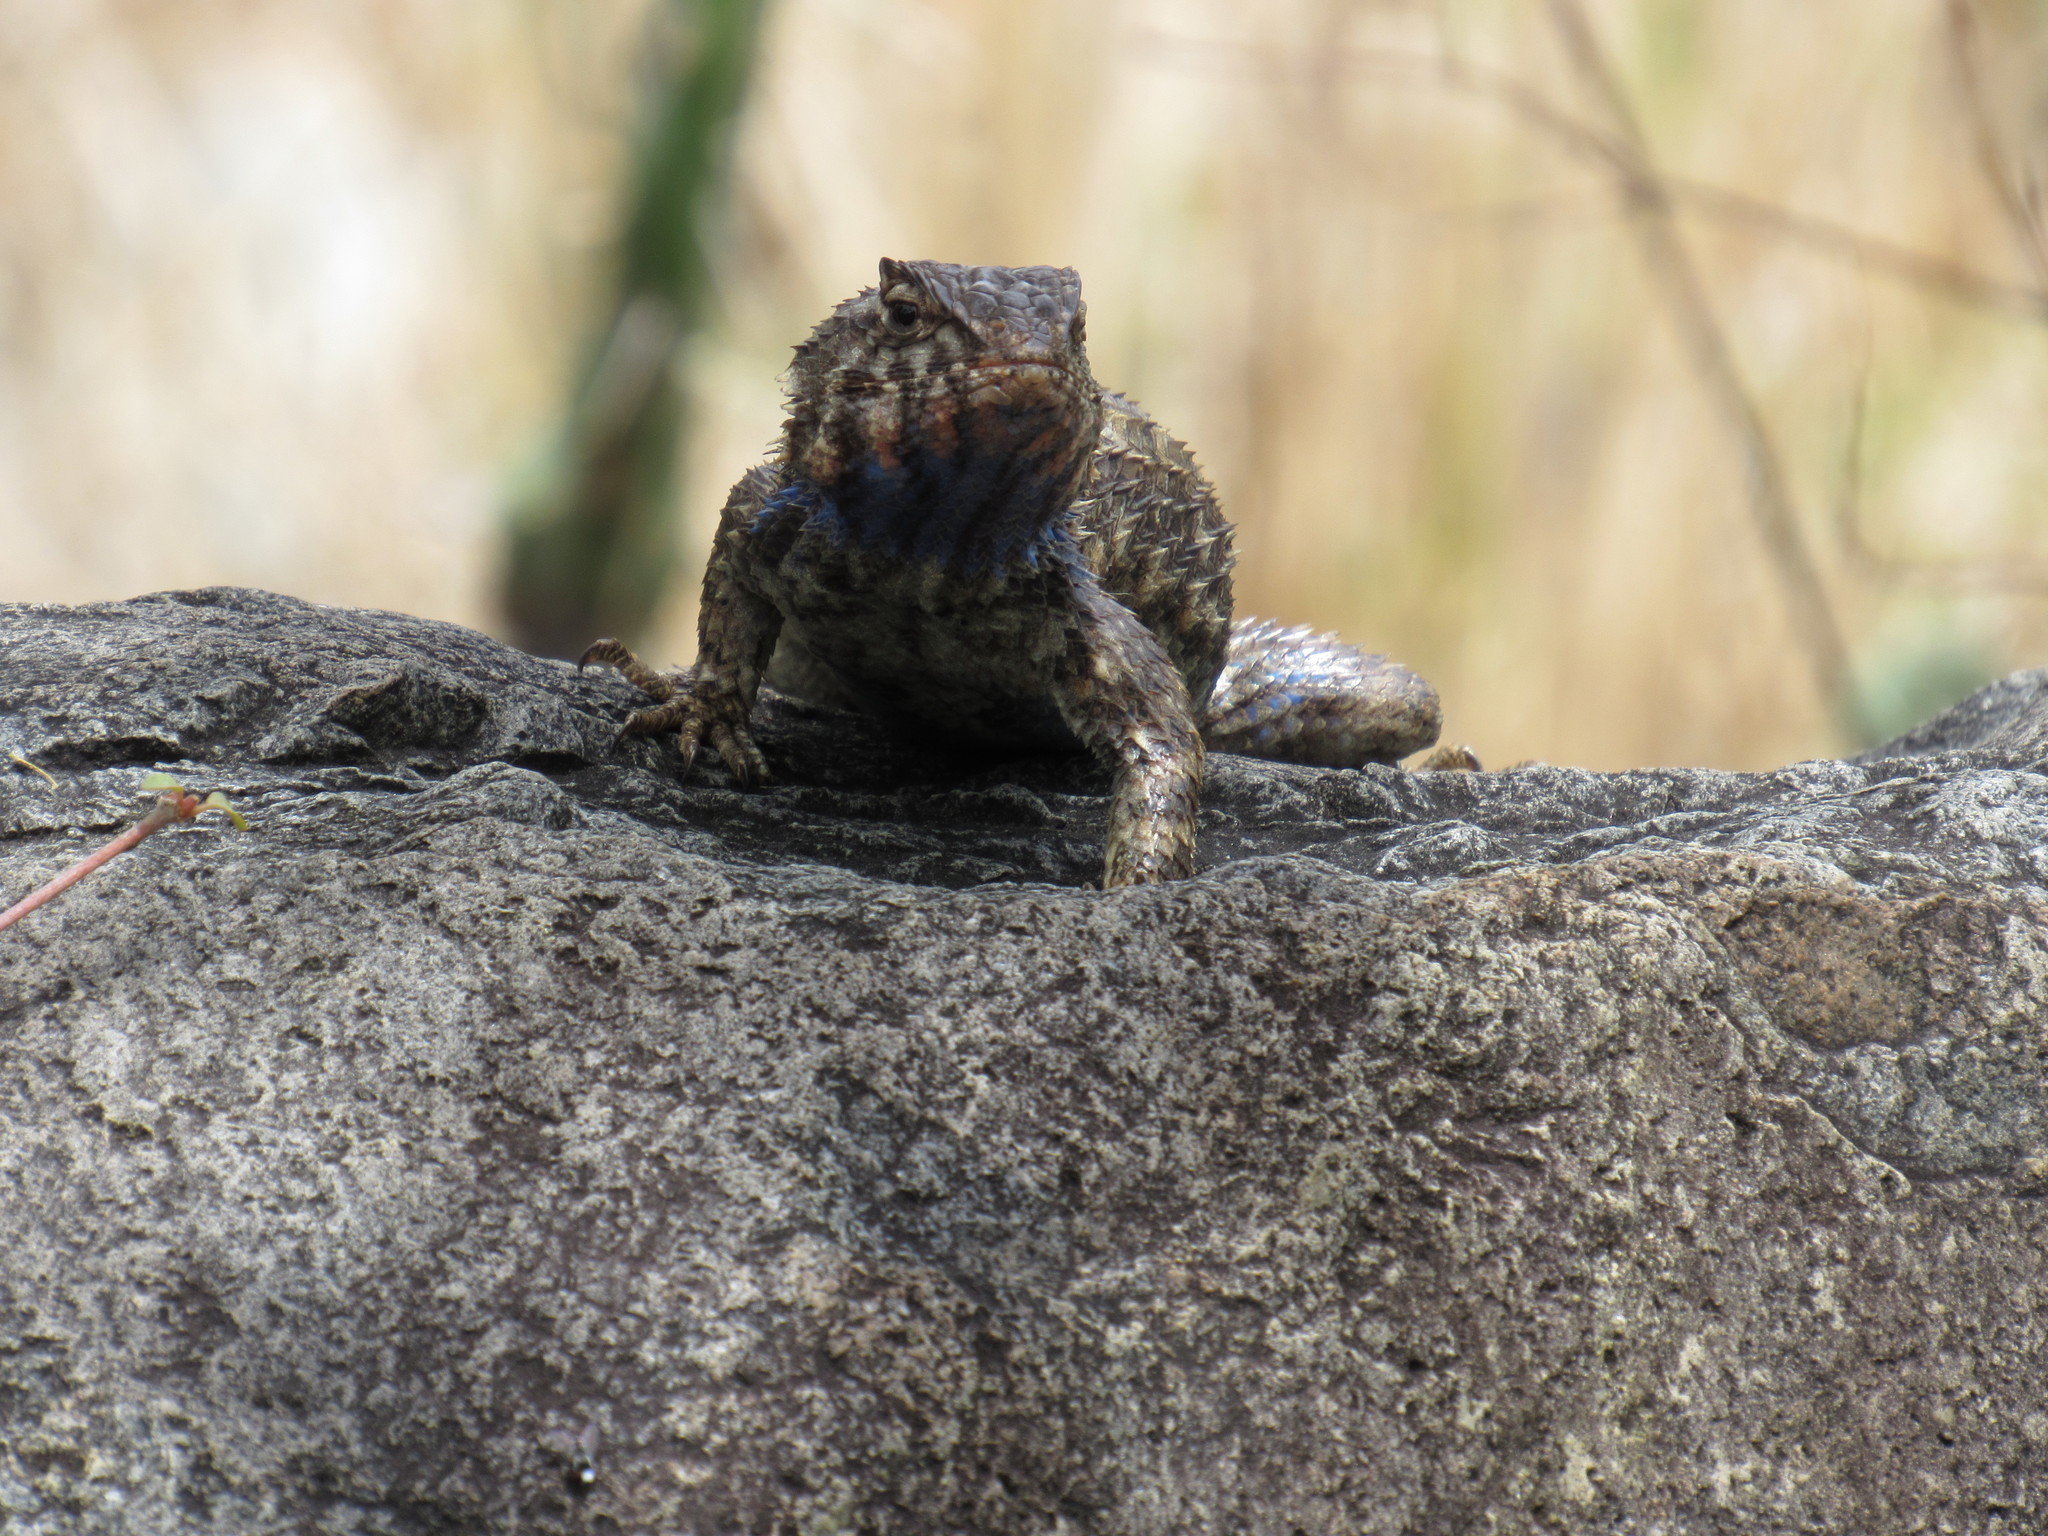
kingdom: Animalia
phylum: Chordata
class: Squamata
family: Phrynosomatidae
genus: Sceloporus
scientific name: Sceloporus spinosus
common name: Blue-spotted spiny lizard [caeruleopunctatus]
